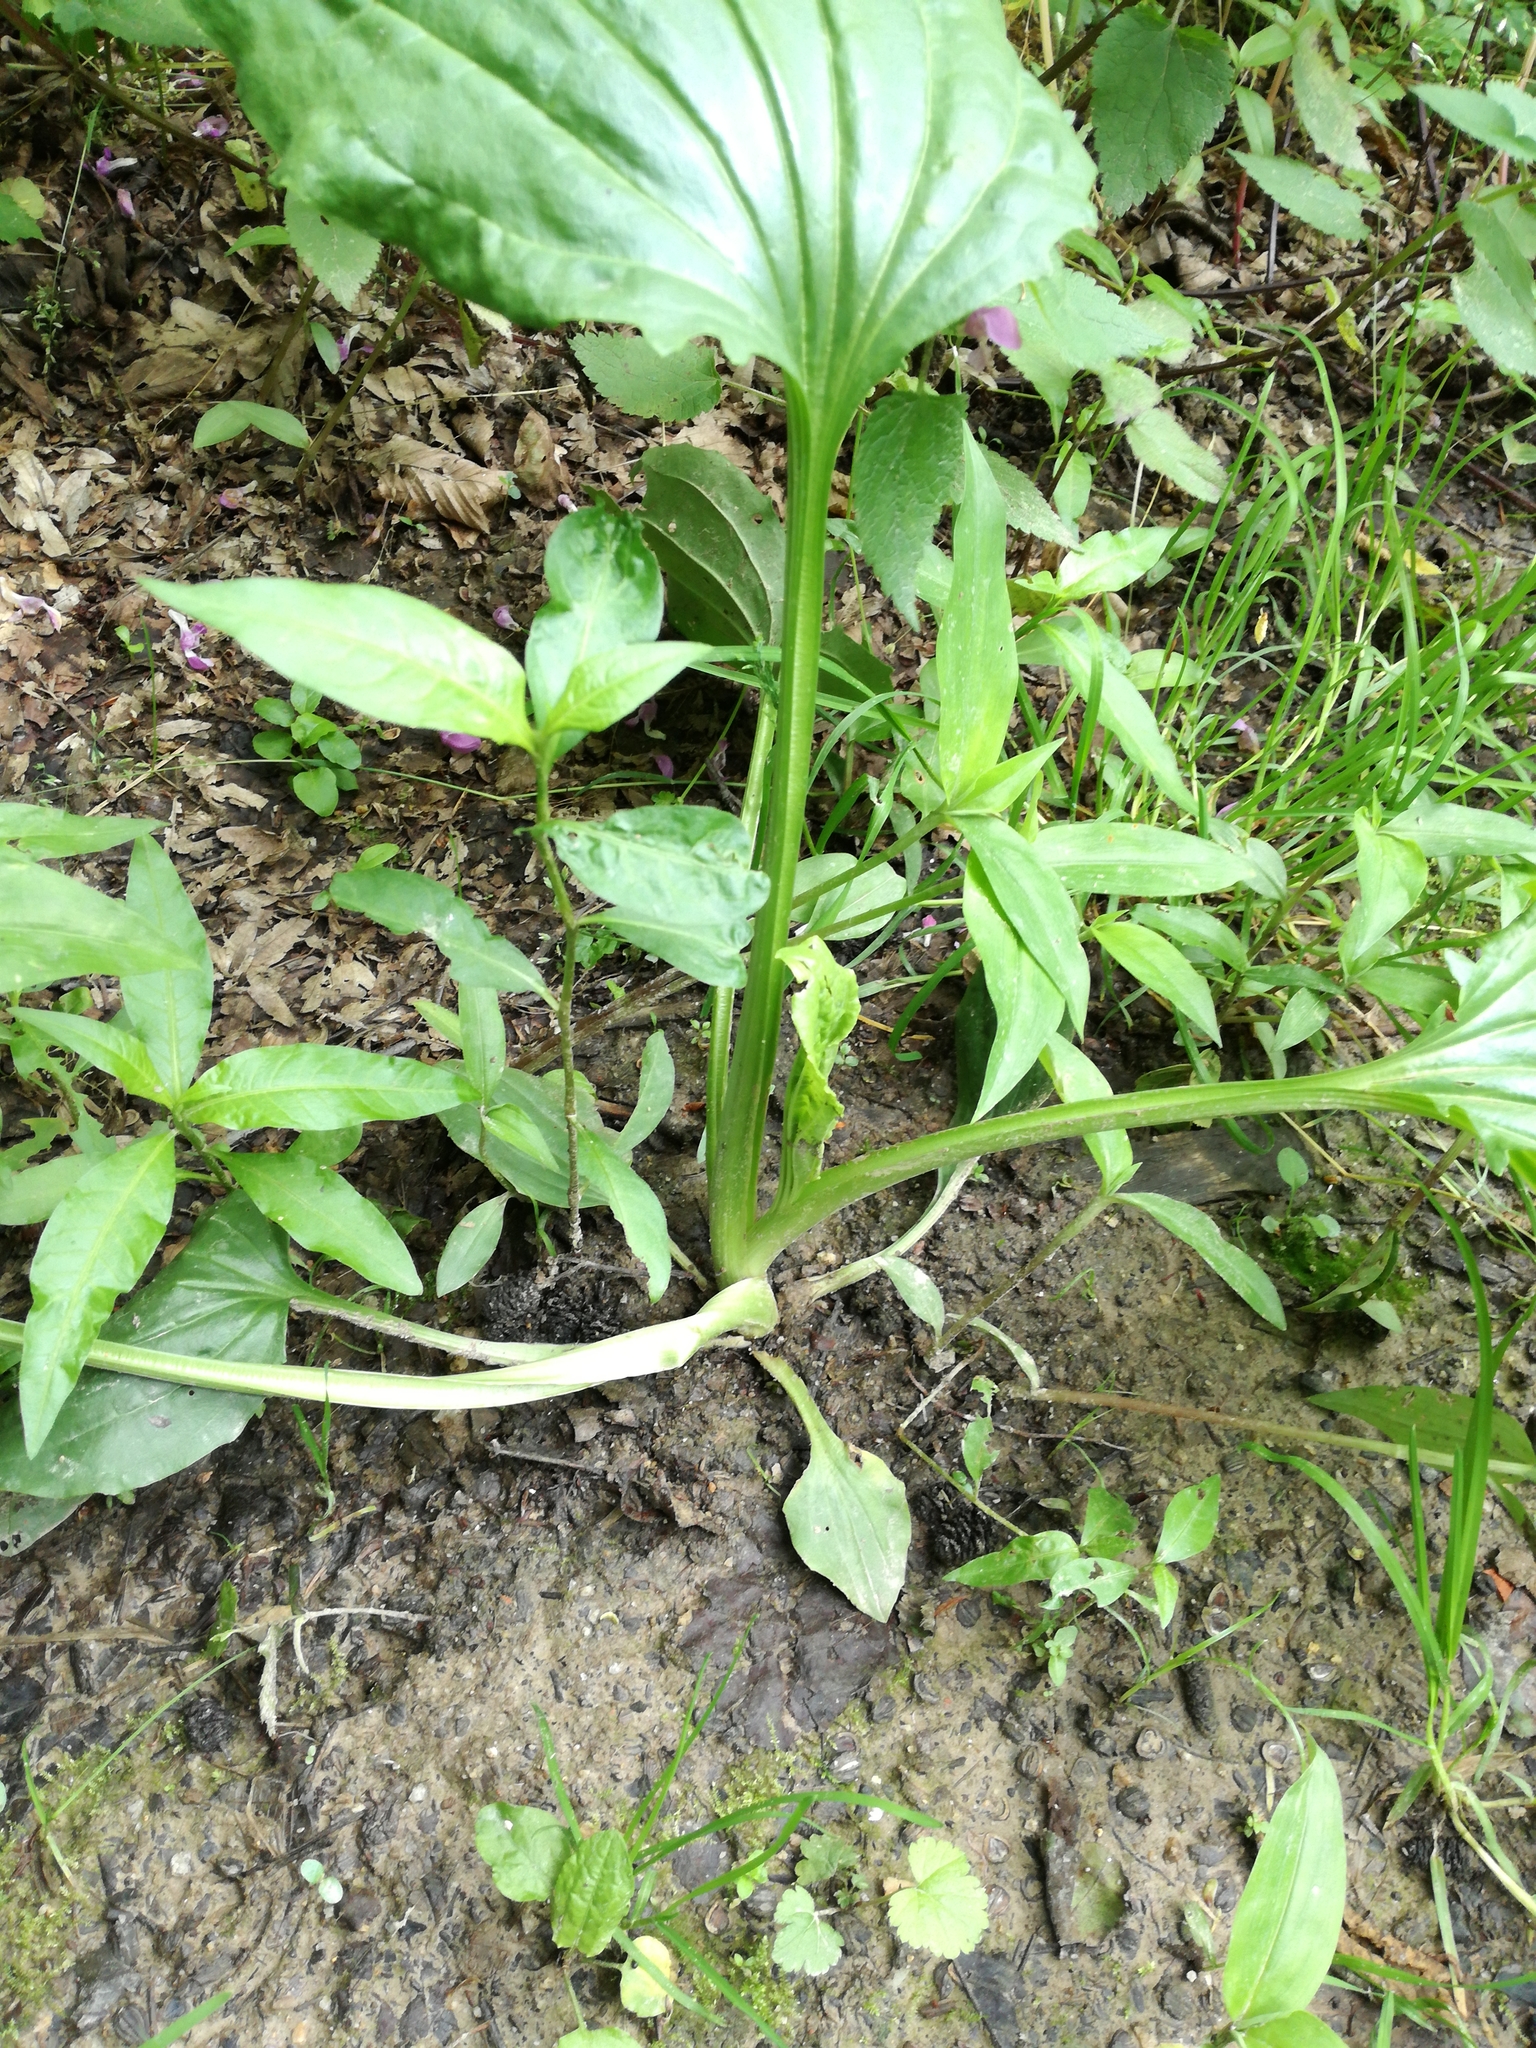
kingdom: Plantae
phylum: Tracheophyta
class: Magnoliopsida
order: Lamiales
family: Plantaginaceae
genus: Plantago
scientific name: Plantago major
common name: Common plantain
